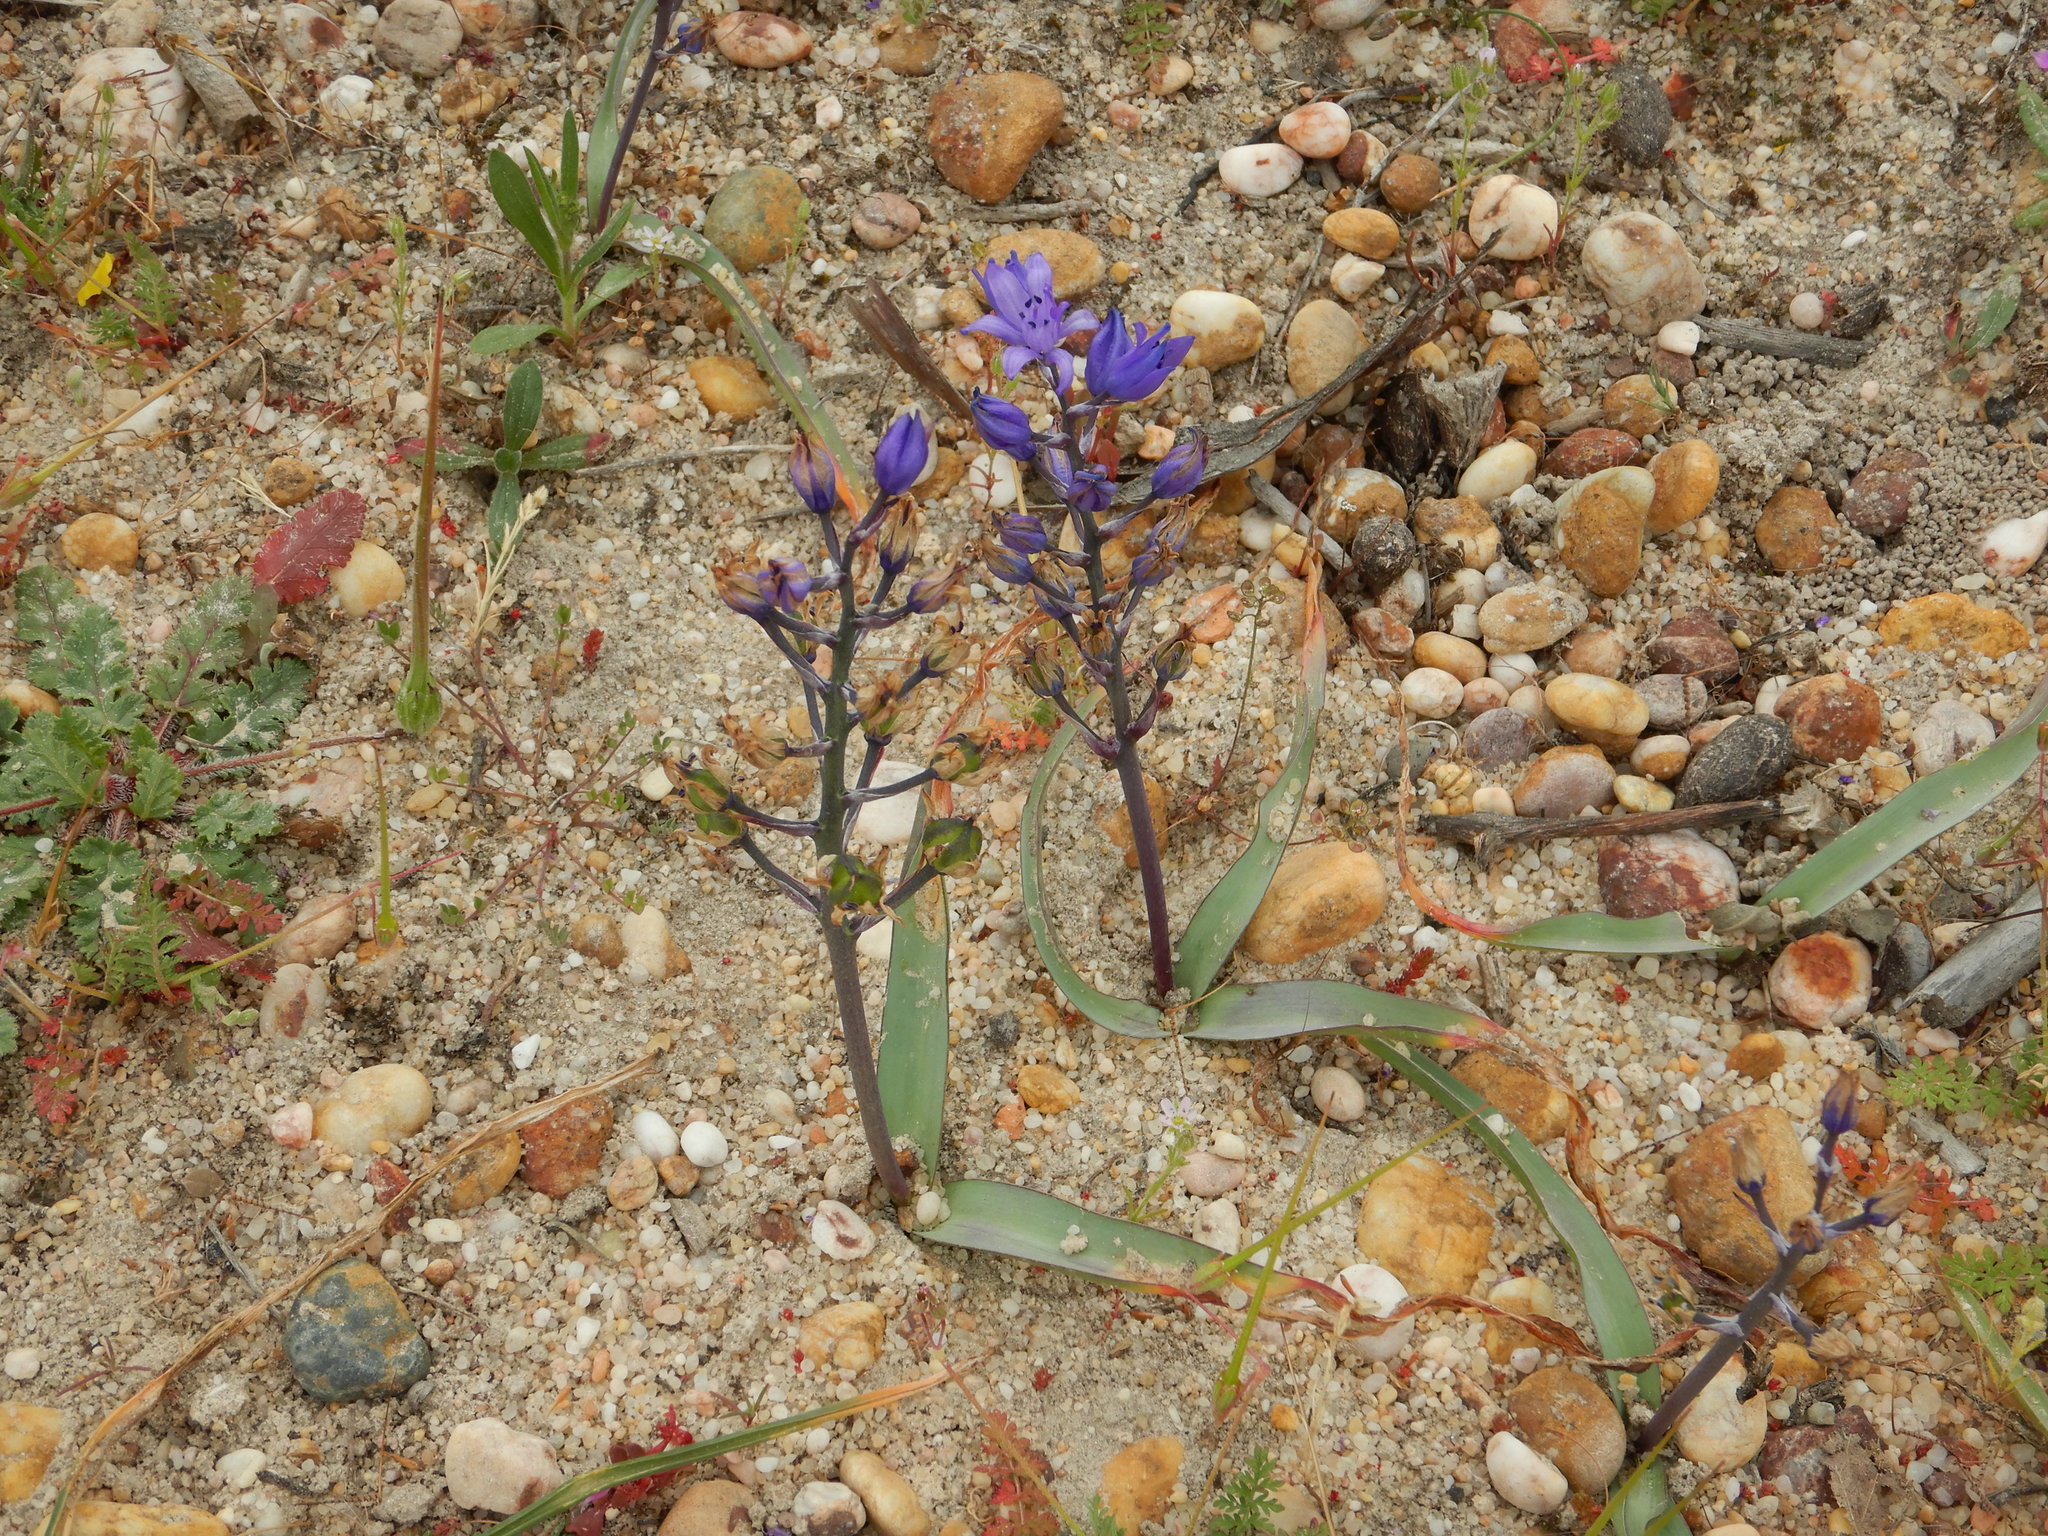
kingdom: Plantae
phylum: Tracheophyta
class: Liliopsida
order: Asparagales
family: Asparagaceae
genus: Scilla
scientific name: Scilla verna
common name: Spring squill
